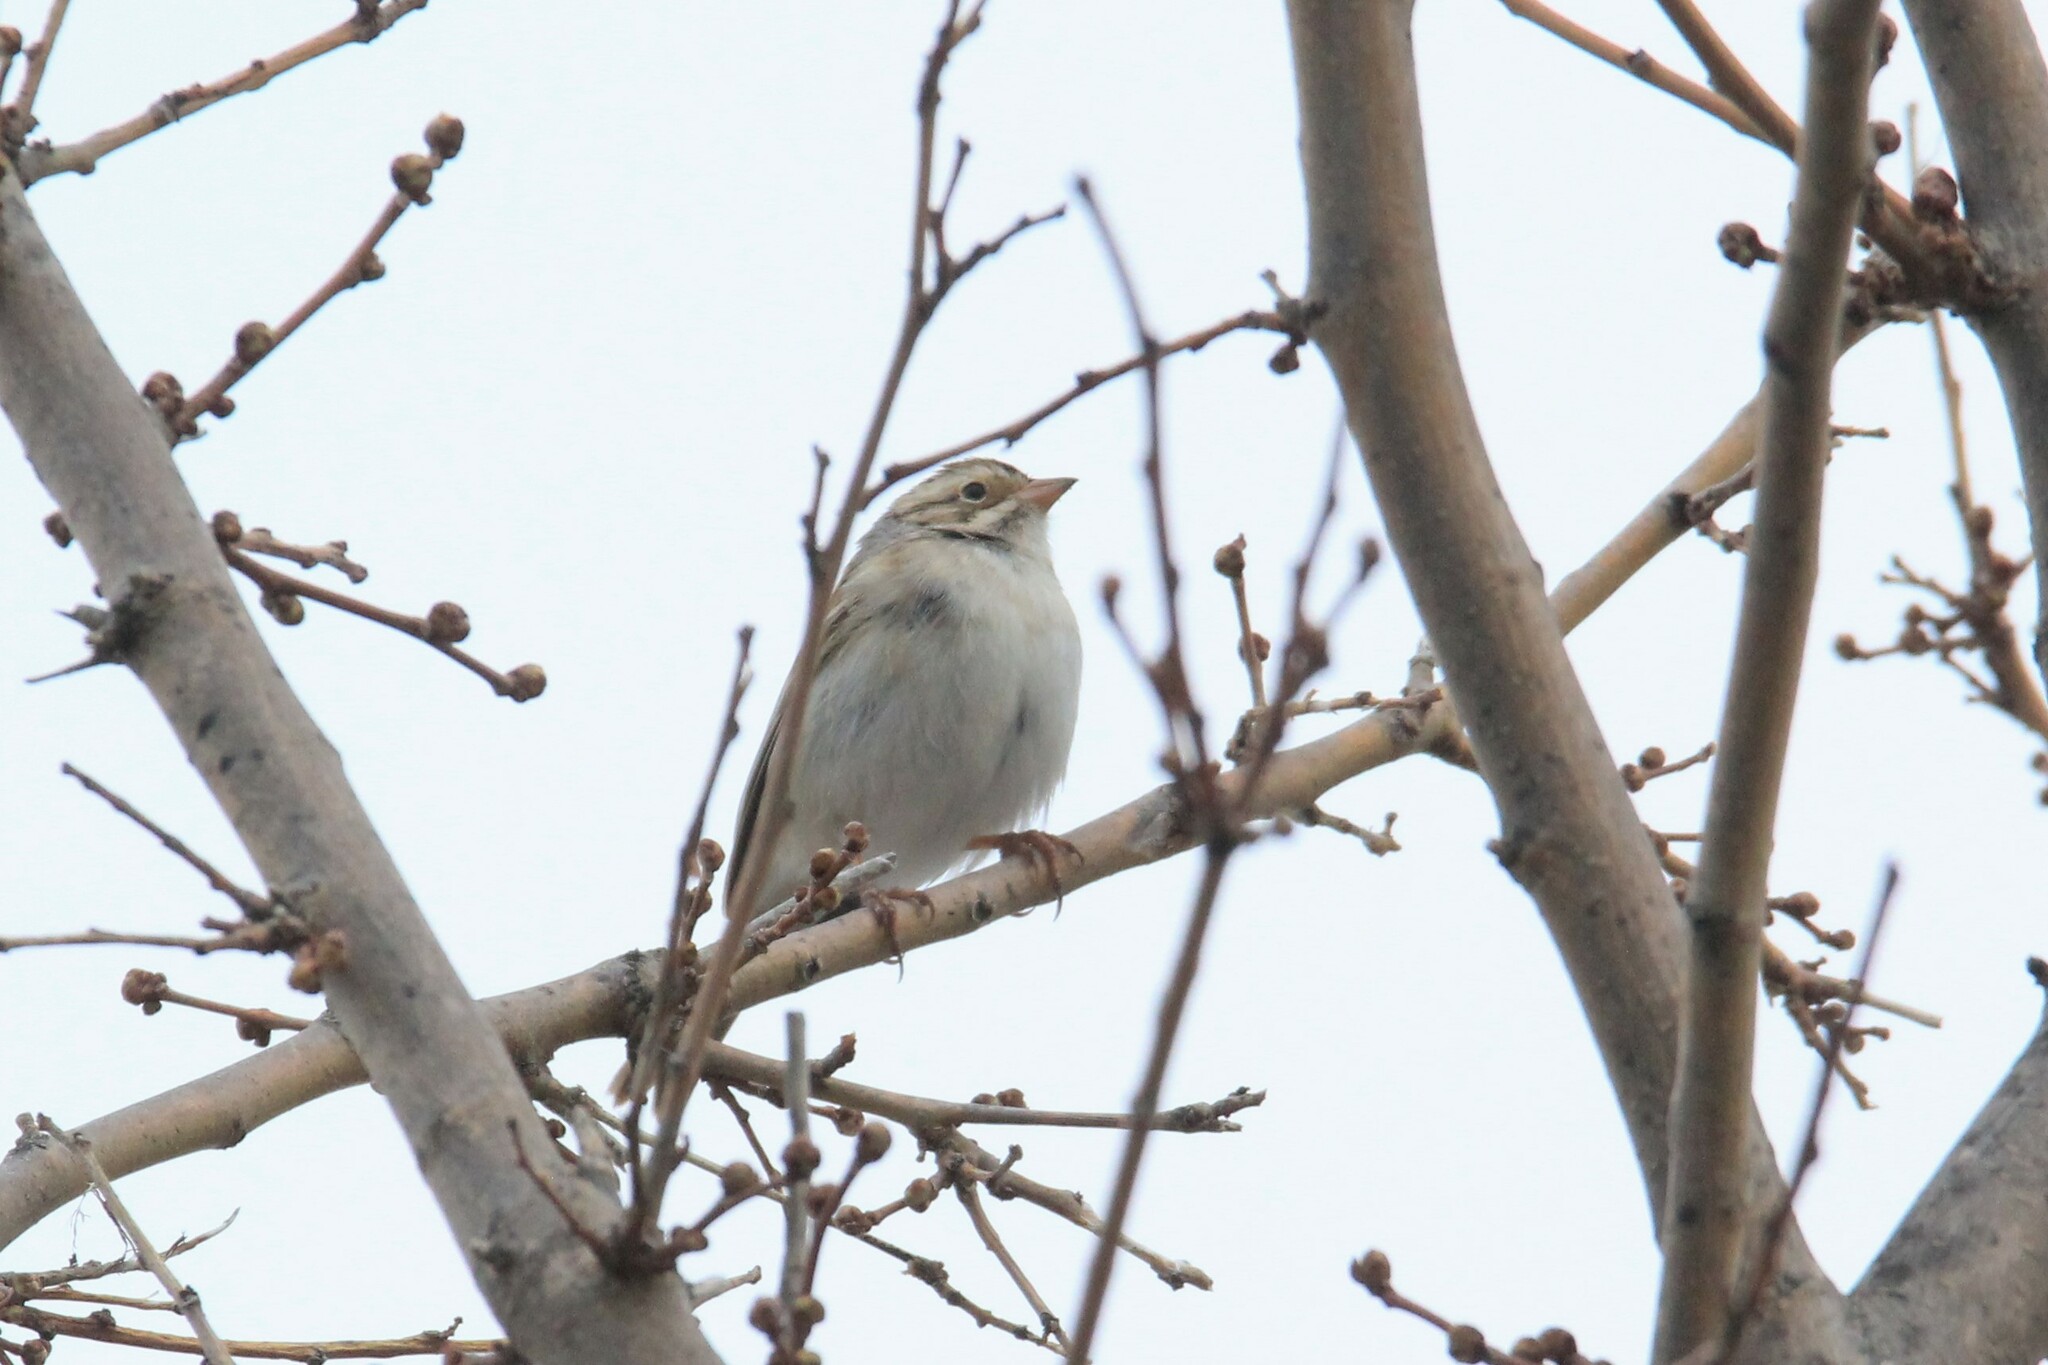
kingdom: Animalia
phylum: Chordata
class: Aves
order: Passeriformes
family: Passerellidae
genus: Spizella
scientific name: Spizella pallida
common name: Clay-colored sparrow
